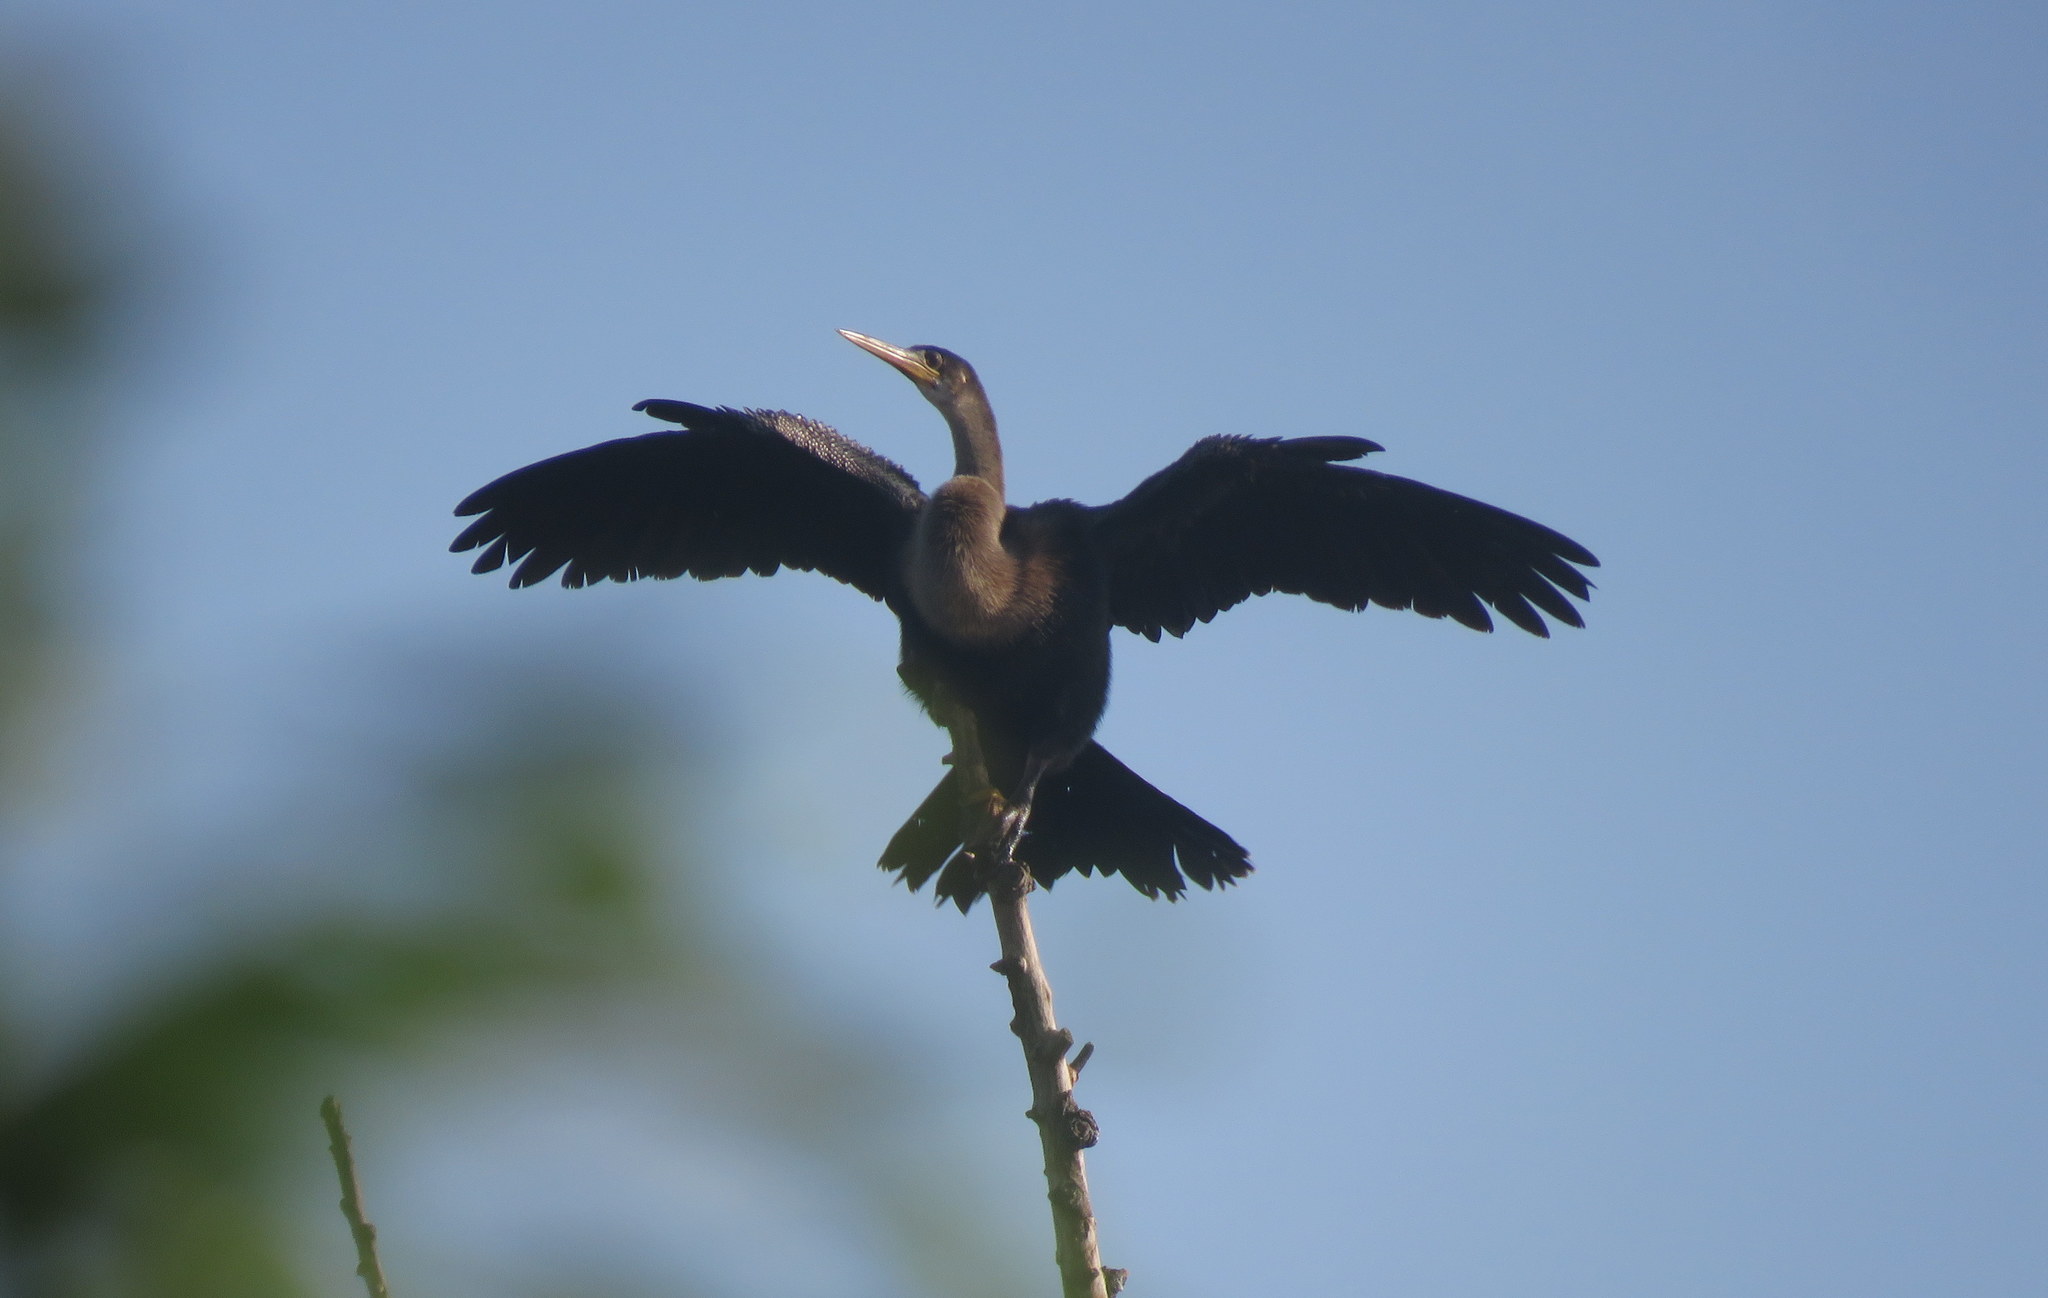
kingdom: Animalia
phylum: Chordata
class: Aves
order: Suliformes
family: Anhingidae
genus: Anhinga
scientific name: Anhinga anhinga
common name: Anhinga
